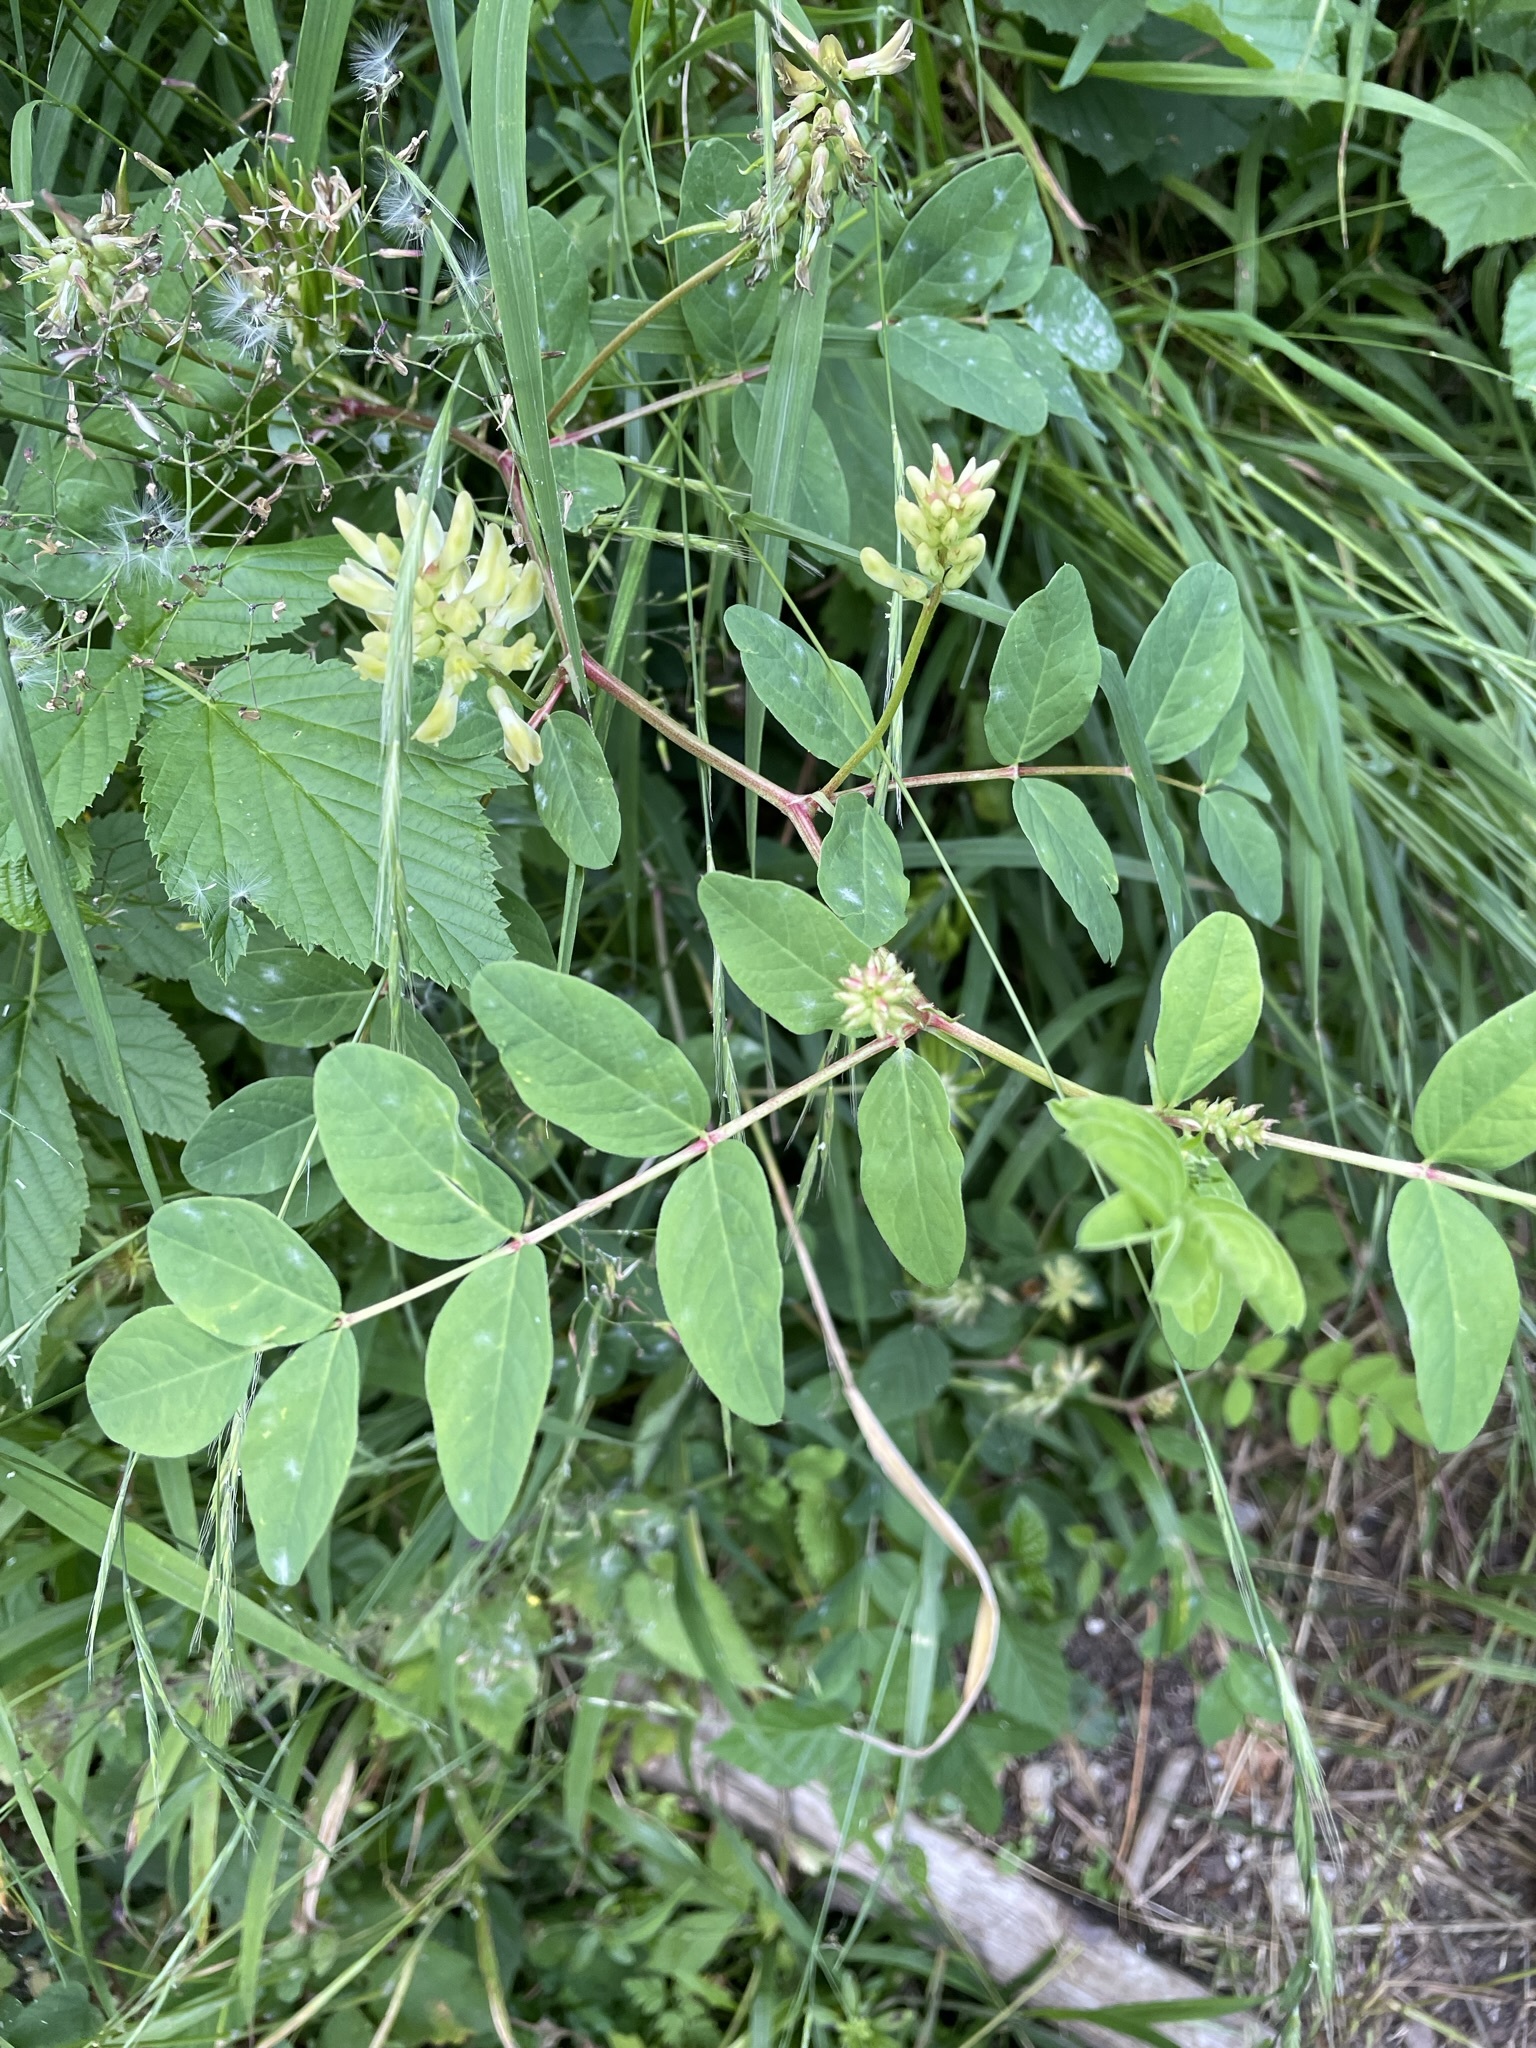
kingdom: Plantae
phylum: Tracheophyta
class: Magnoliopsida
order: Fabales
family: Fabaceae
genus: Astragalus
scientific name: Astragalus glycyphyllos
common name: Wild liquorice
